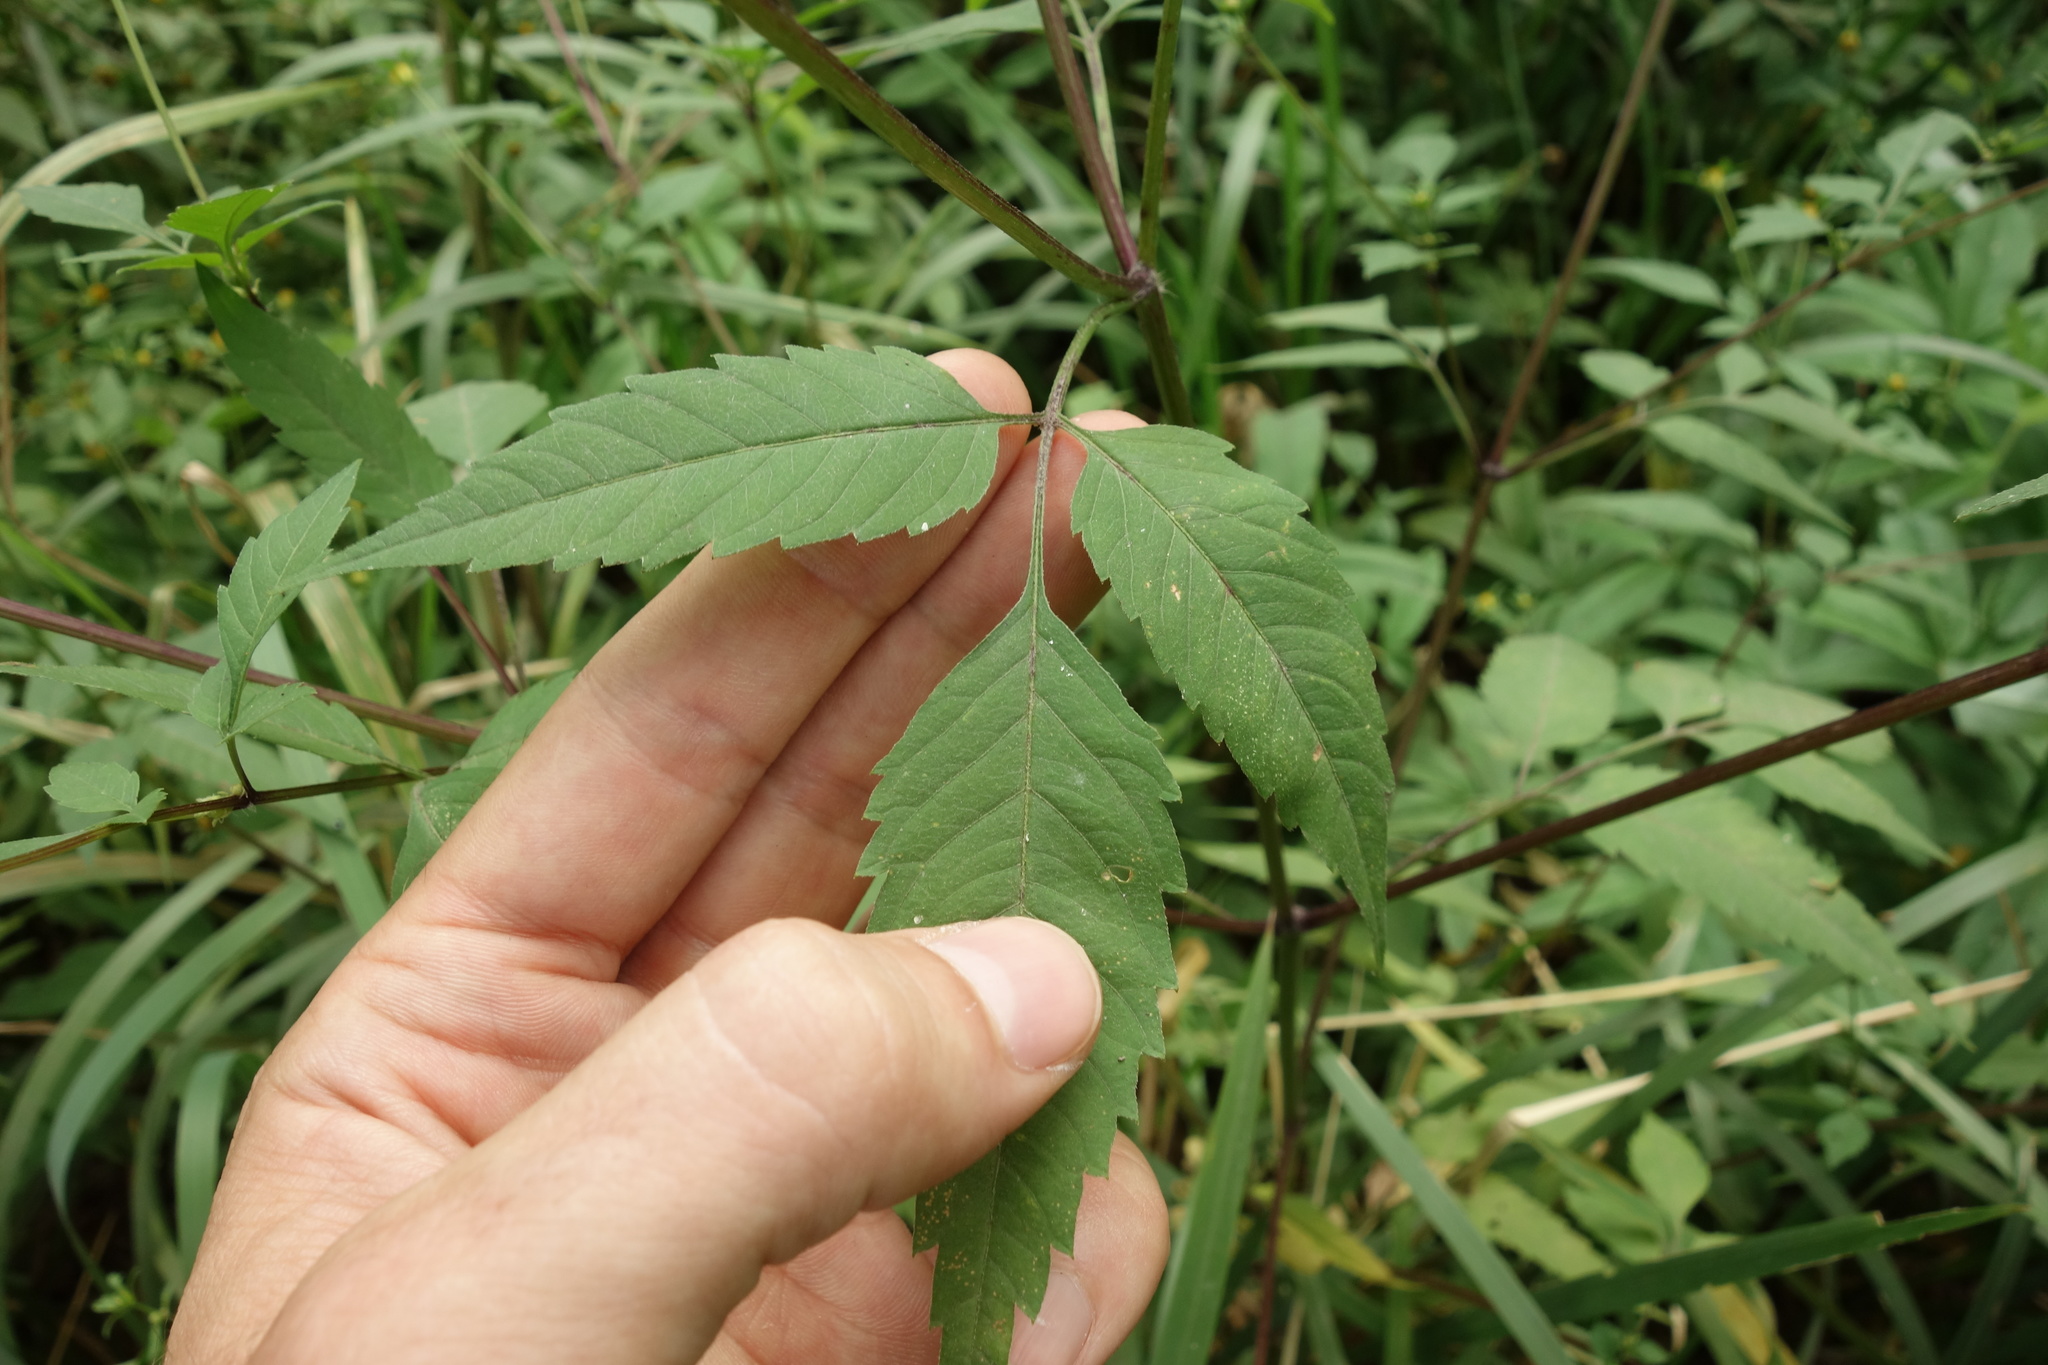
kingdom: Plantae
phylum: Tracheophyta
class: Magnoliopsida
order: Asterales
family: Asteraceae
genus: Bidens
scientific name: Bidens frondosa
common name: Beggarticks
